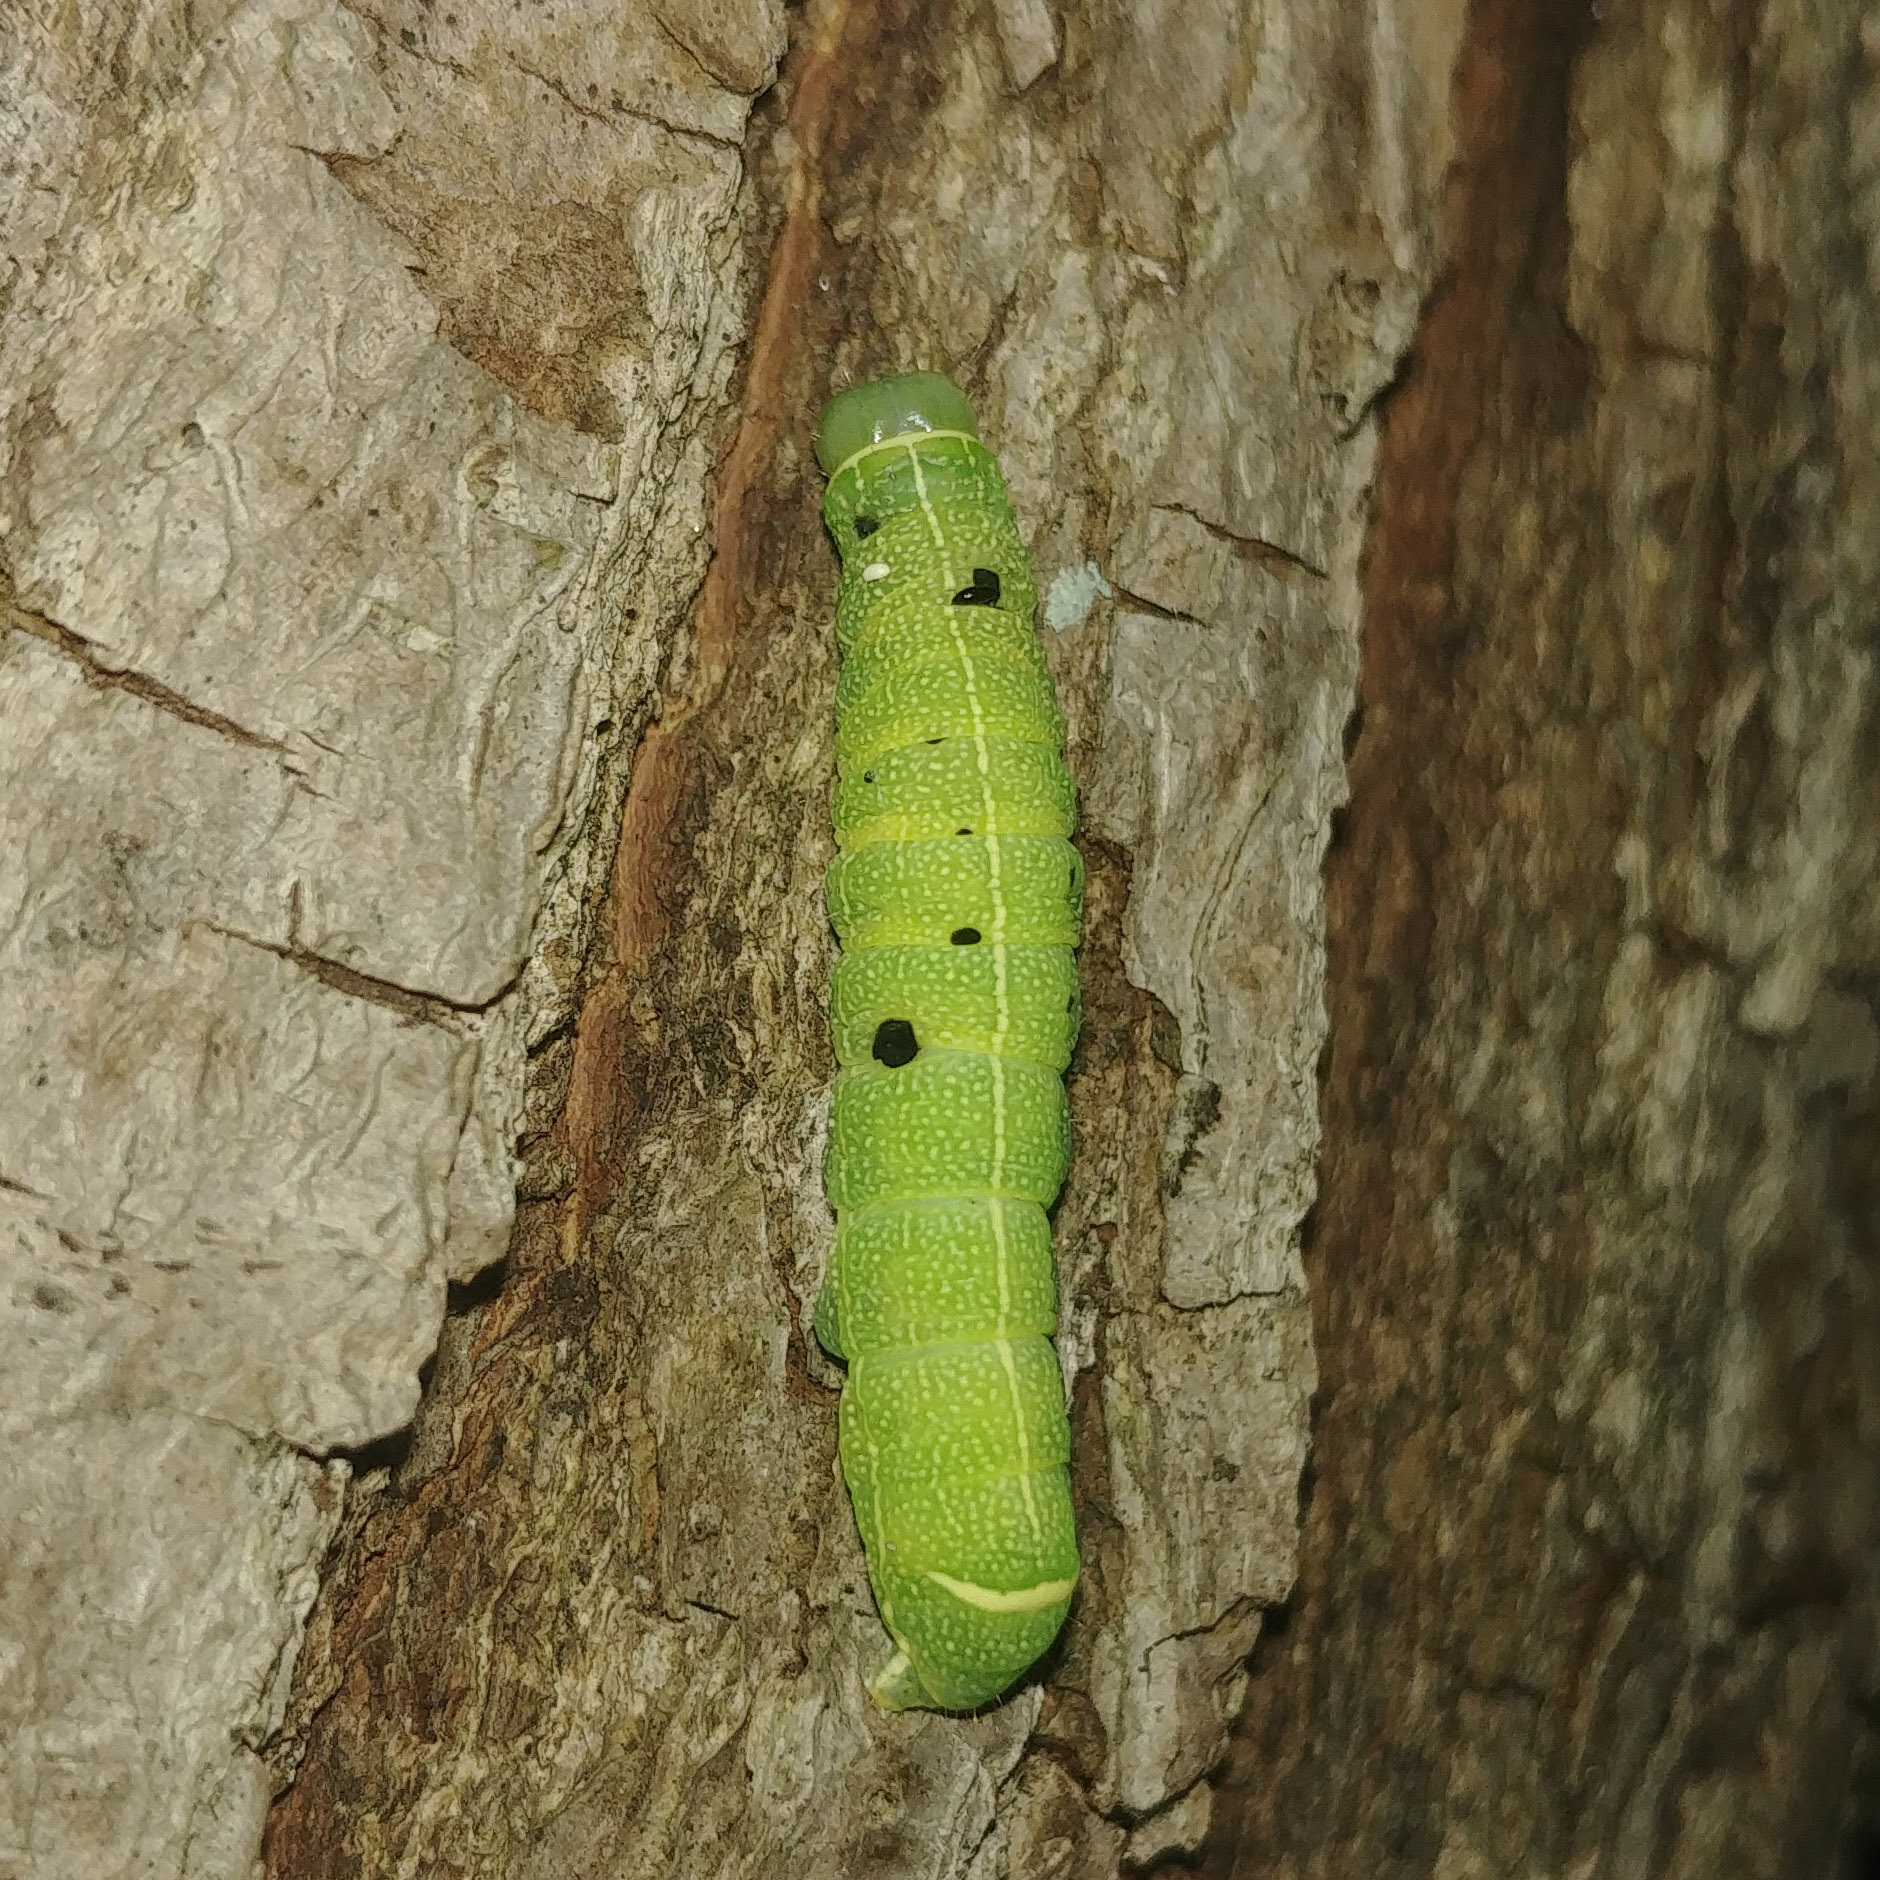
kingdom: Animalia
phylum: Arthropoda
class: Insecta
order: Lepidoptera
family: Noctuidae
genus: Orthosia
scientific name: Orthosia cerasi
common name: Common quaker
